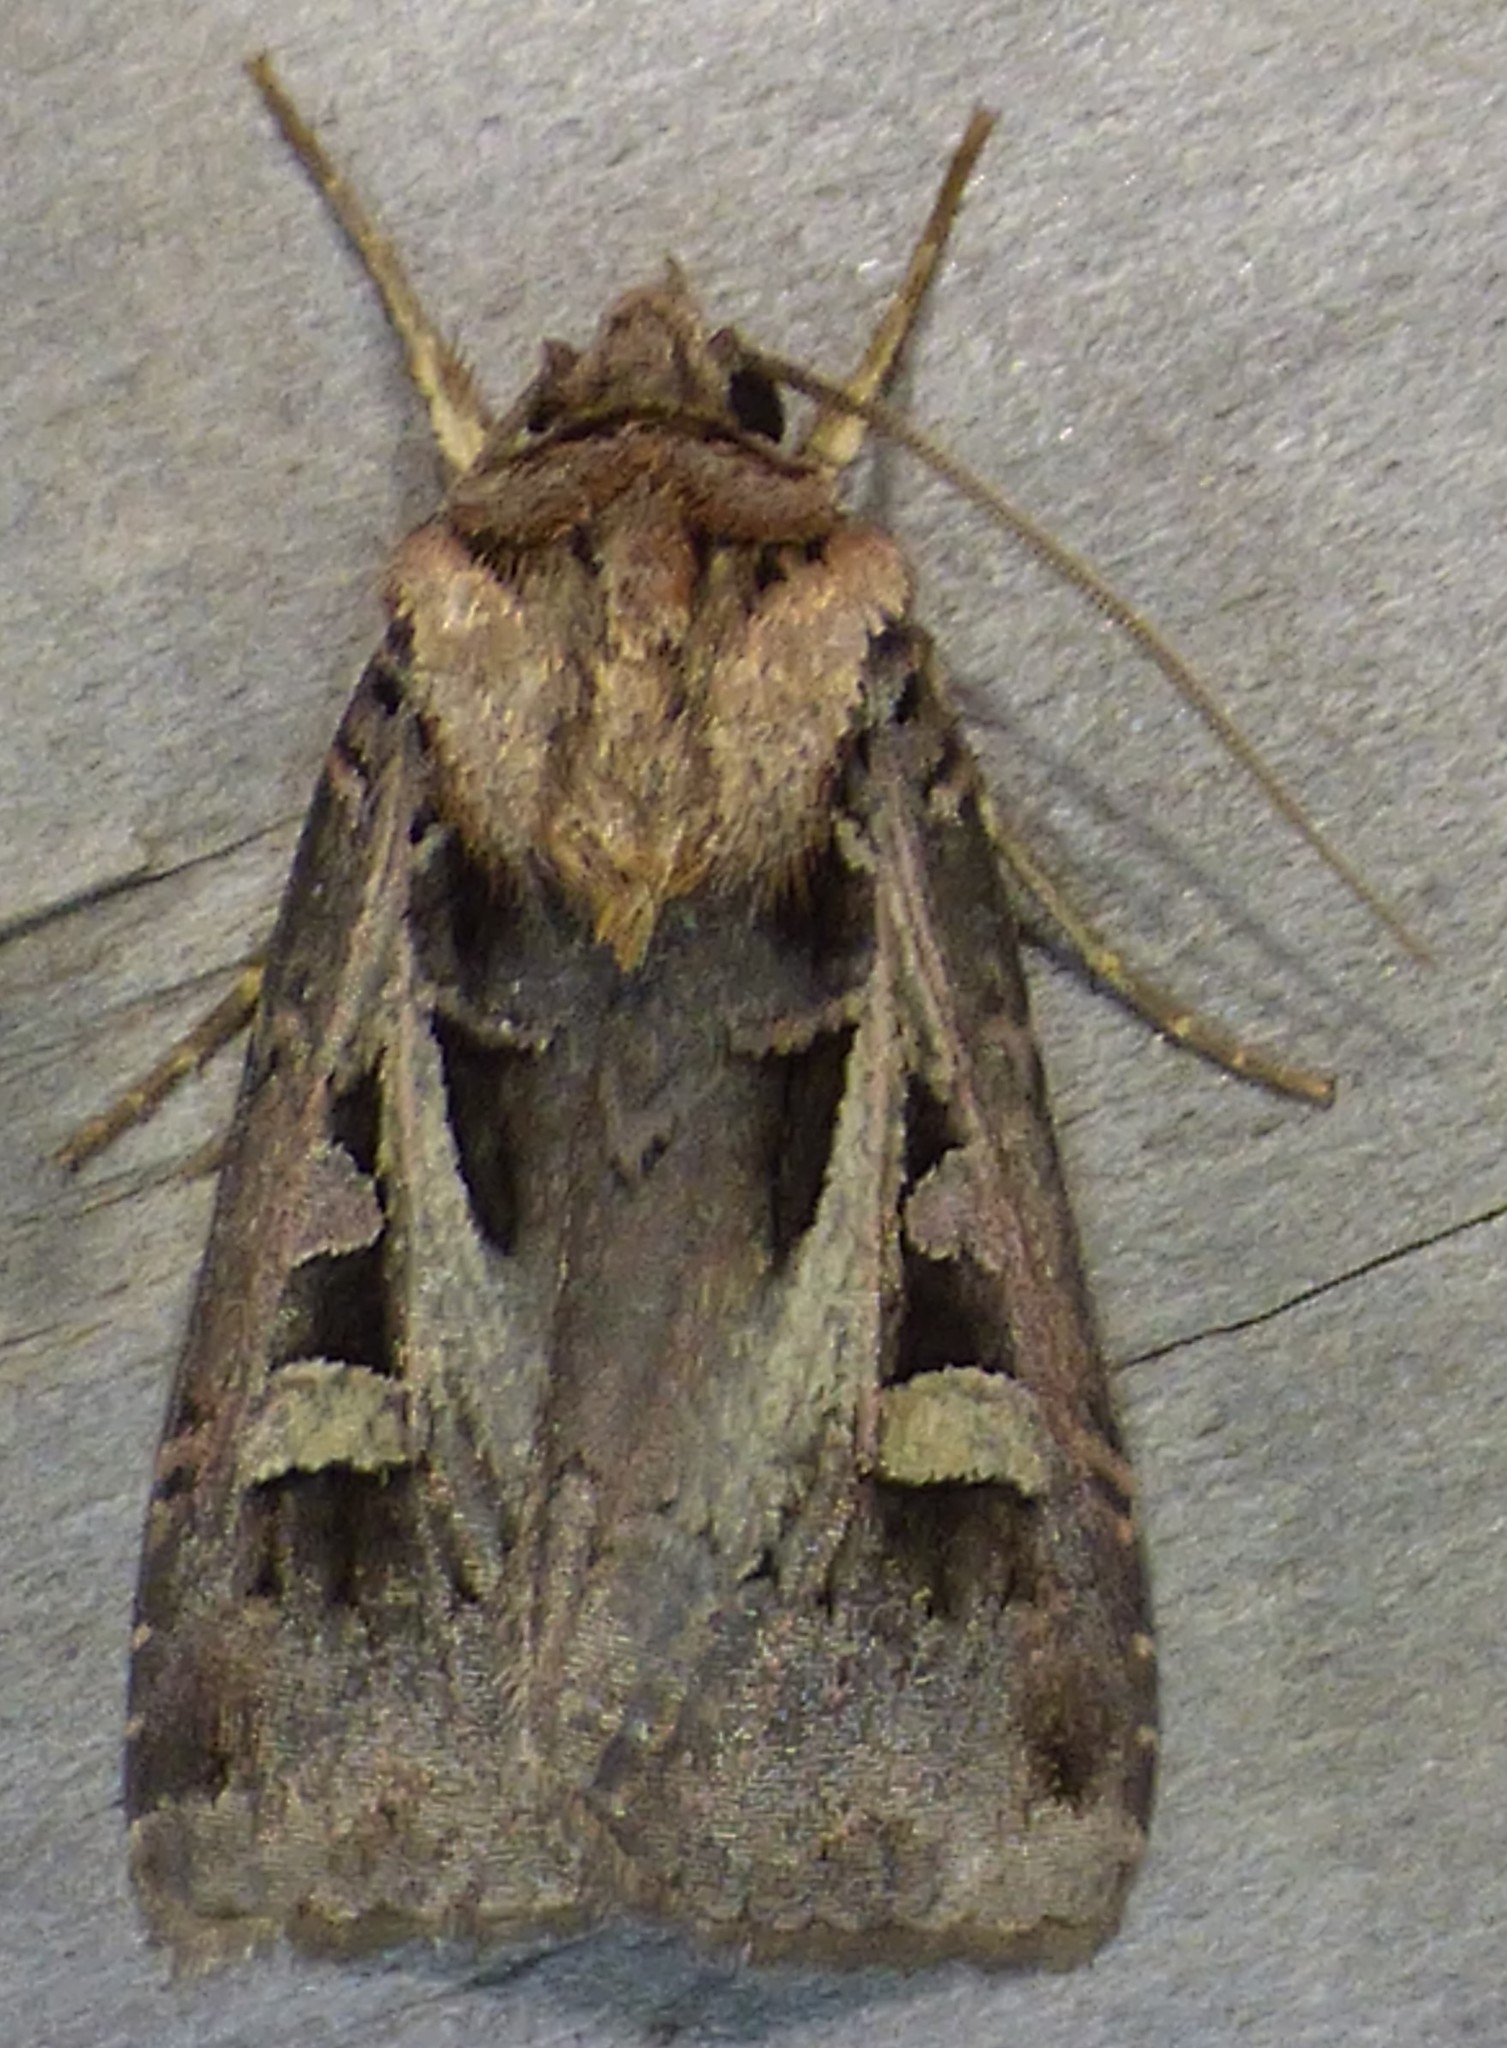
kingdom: Animalia
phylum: Arthropoda
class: Insecta
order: Lepidoptera
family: Noctuidae
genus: Feltia
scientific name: Feltia herilis
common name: Master's dart
